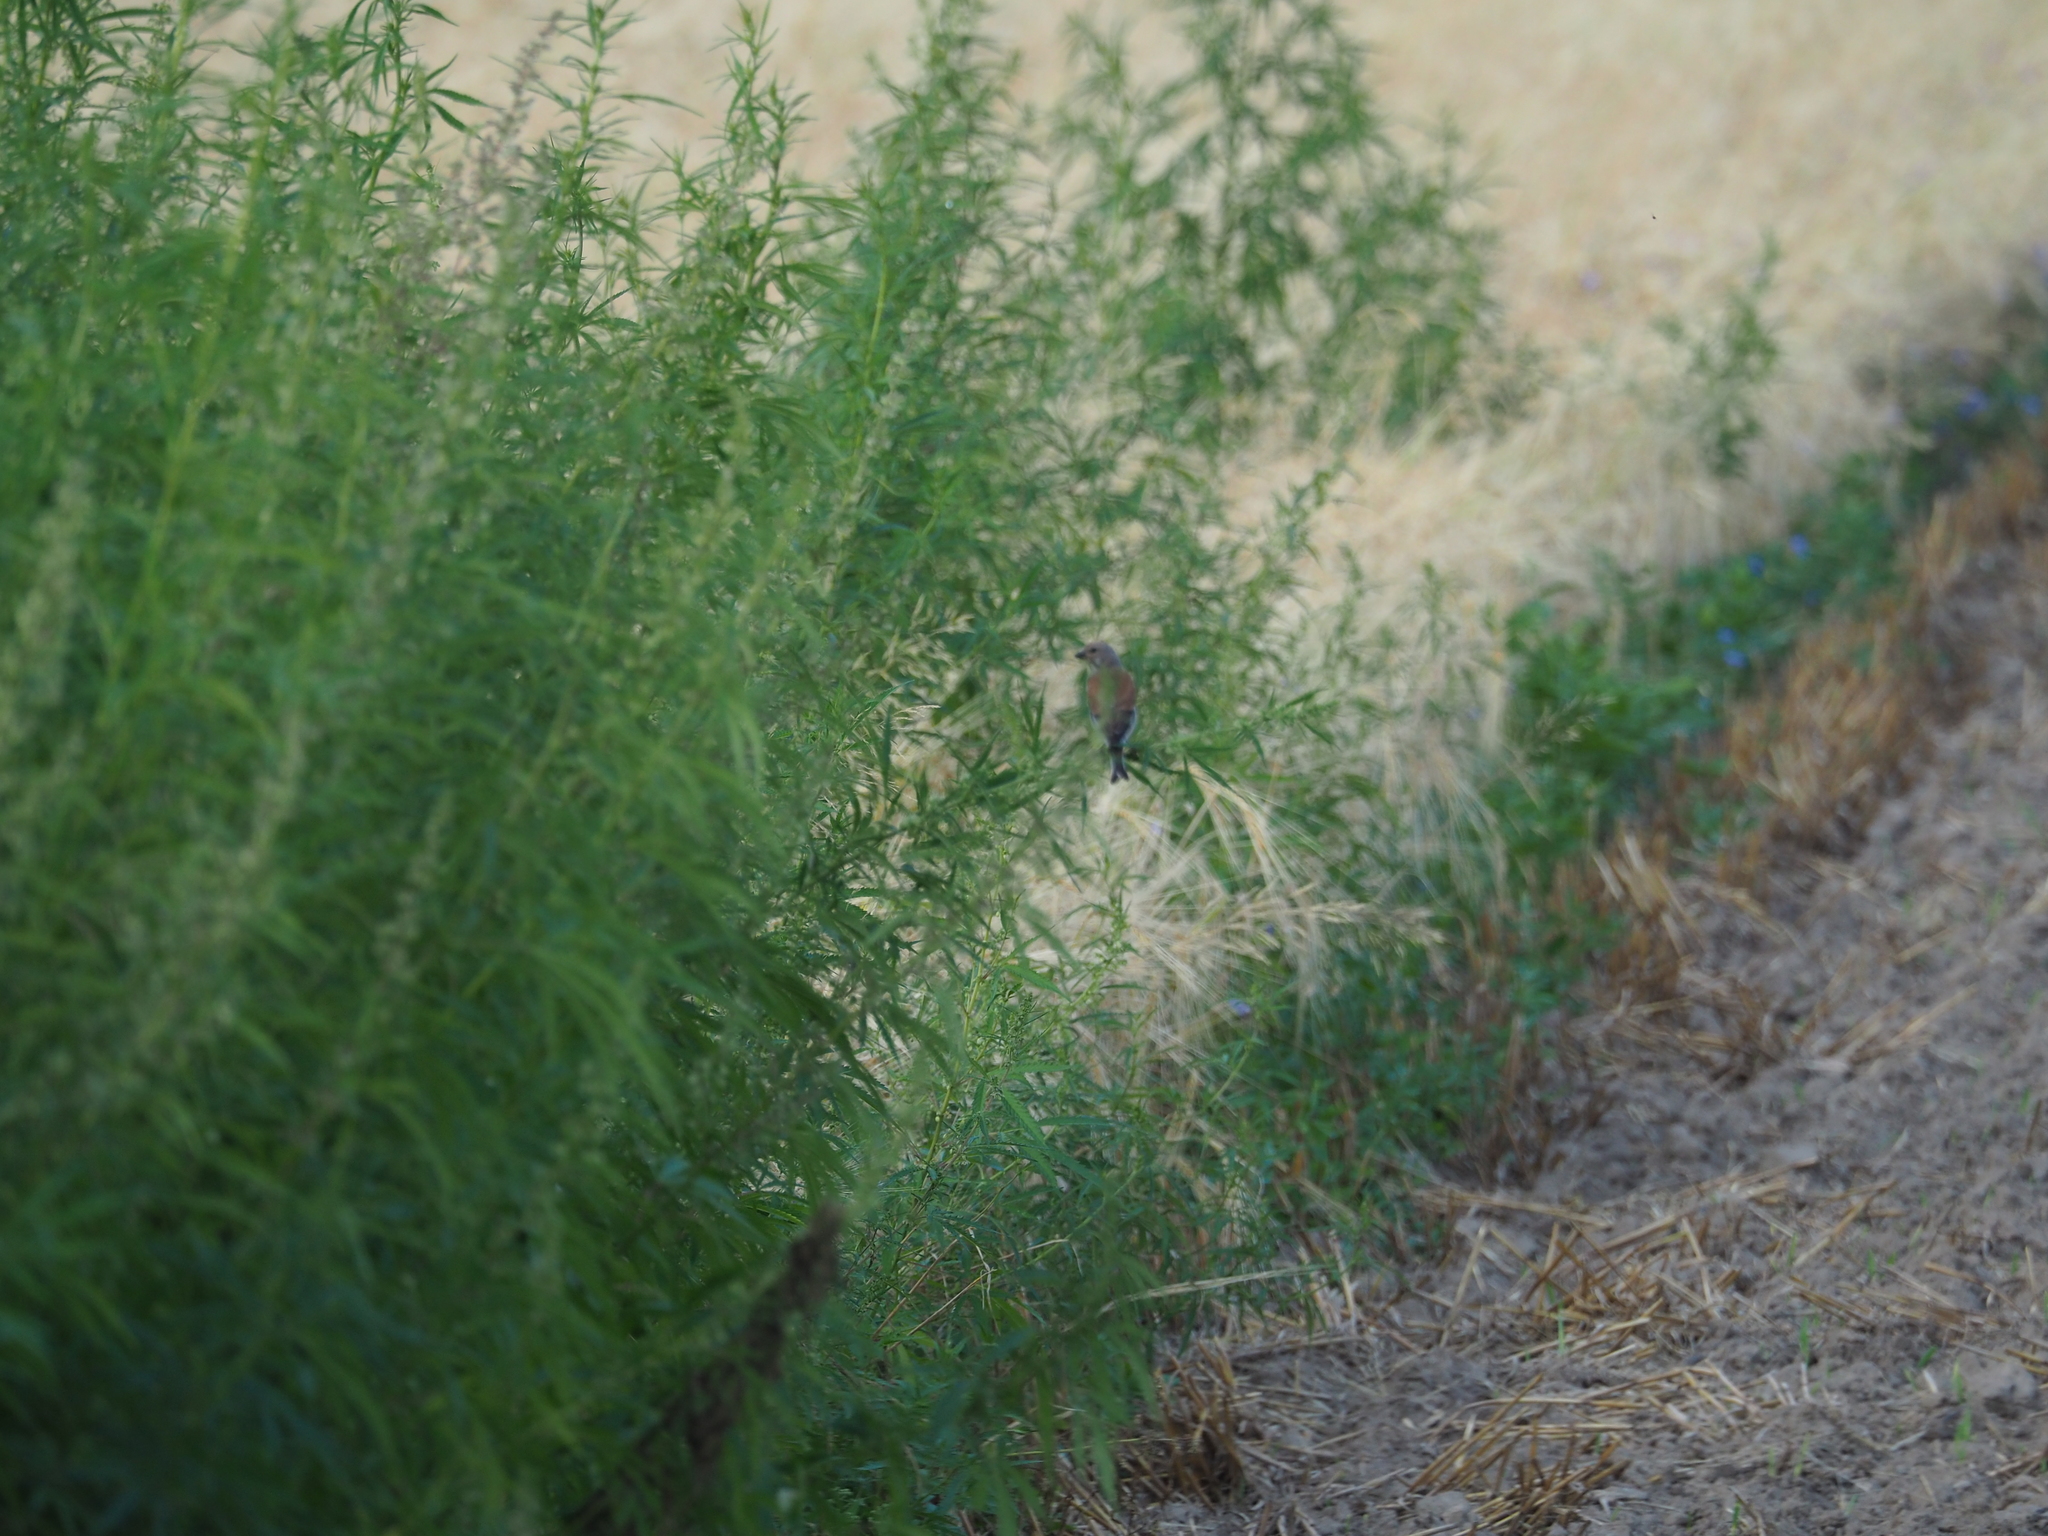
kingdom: Animalia
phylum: Chordata
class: Aves
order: Passeriformes
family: Fringillidae
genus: Linaria
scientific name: Linaria cannabina
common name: Common linnet
